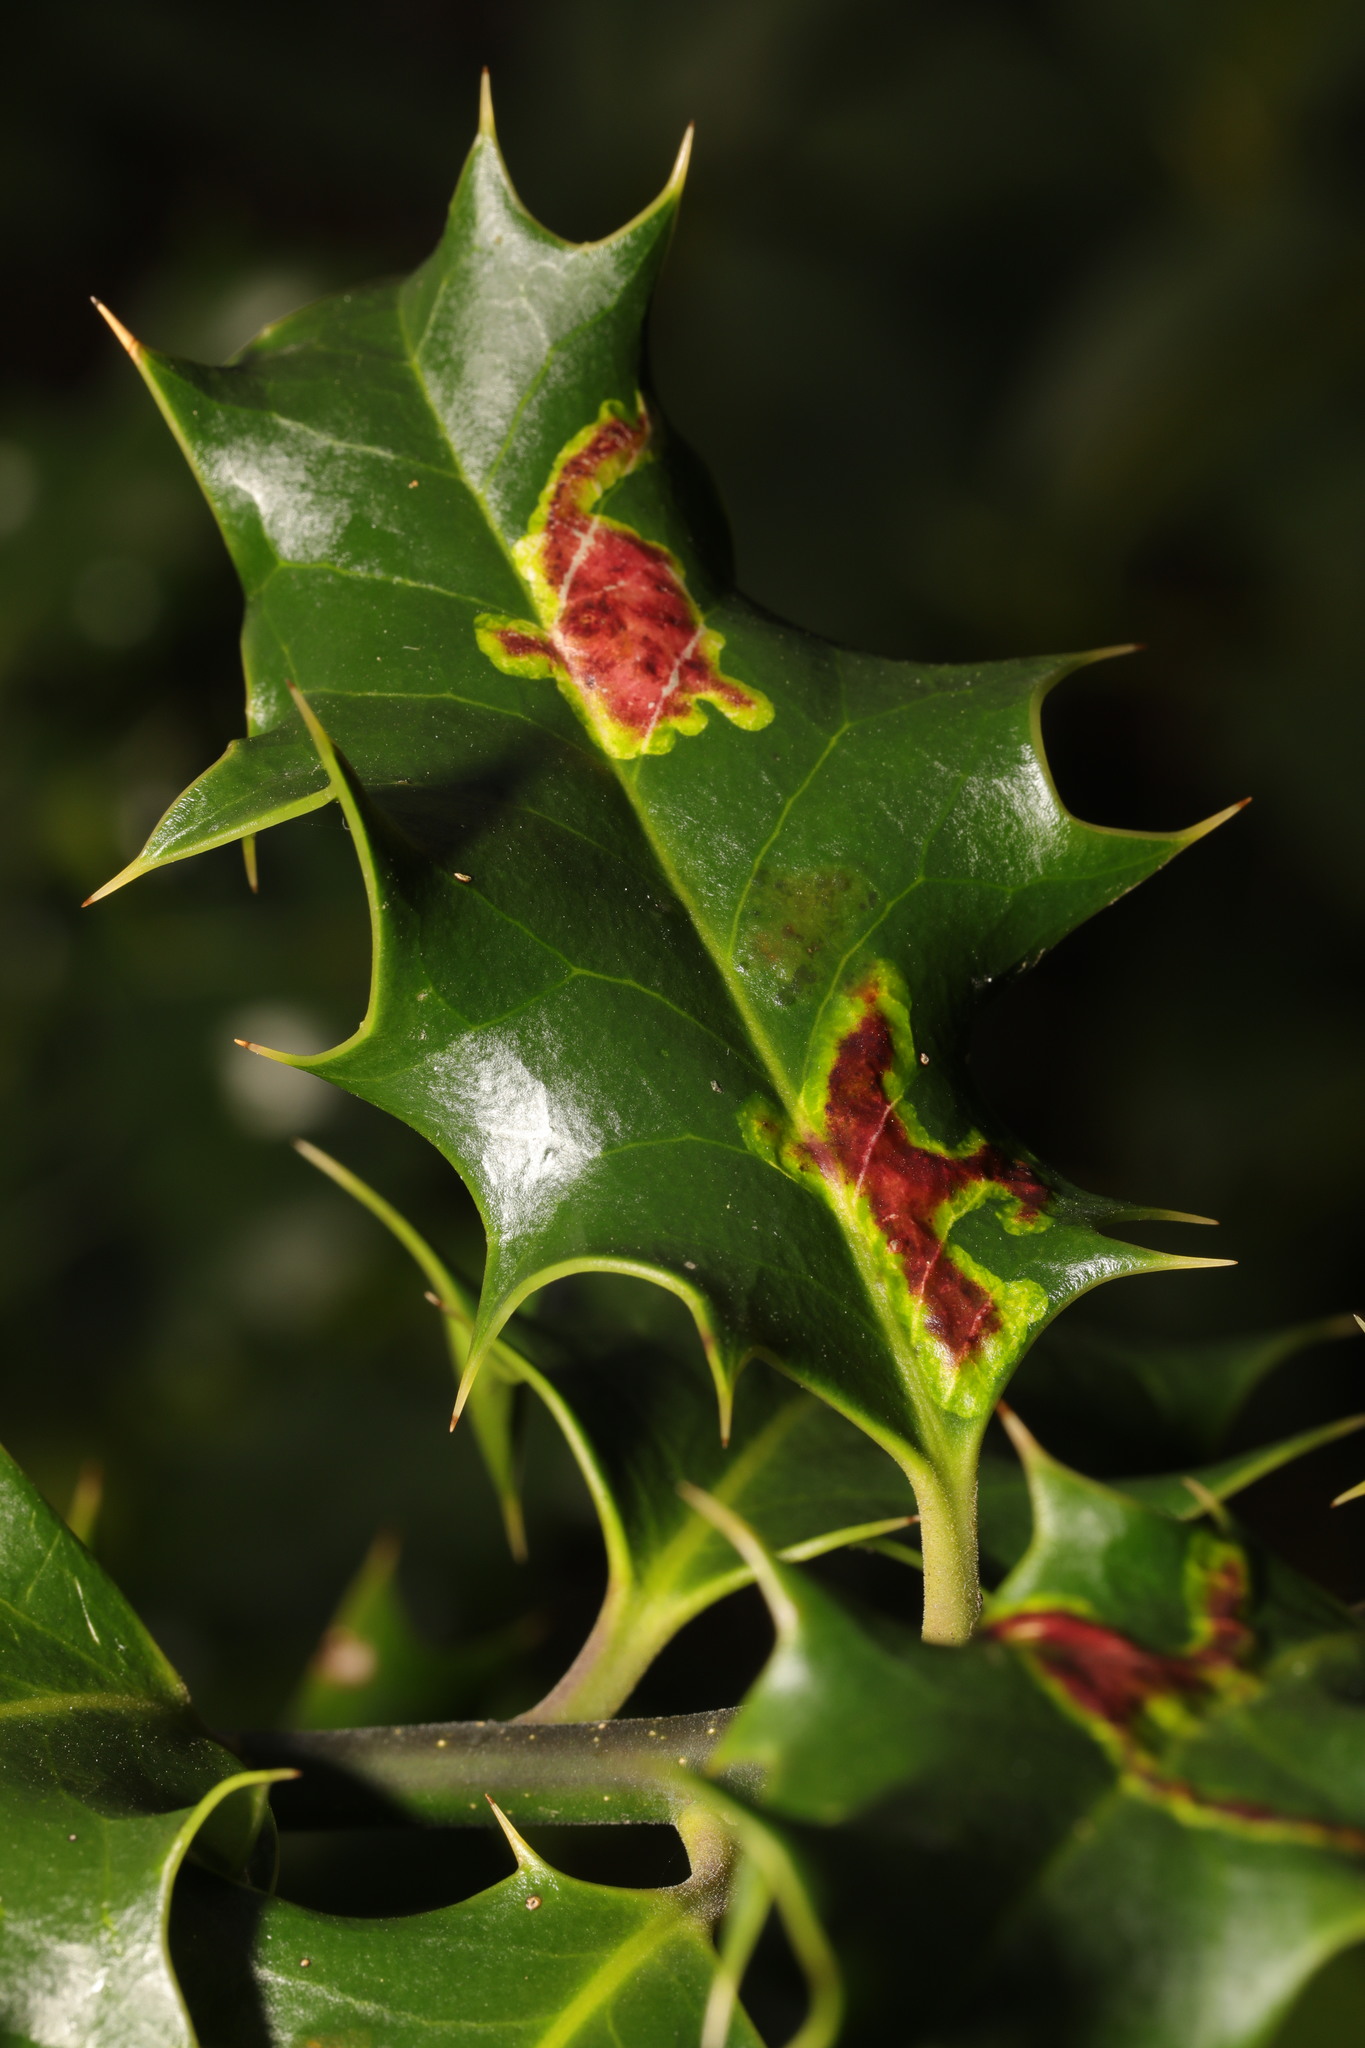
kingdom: Animalia
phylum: Arthropoda
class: Insecta
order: Diptera
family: Agromyzidae
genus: Phytomyza
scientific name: Phytomyza ilicis
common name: Holly leafminer
